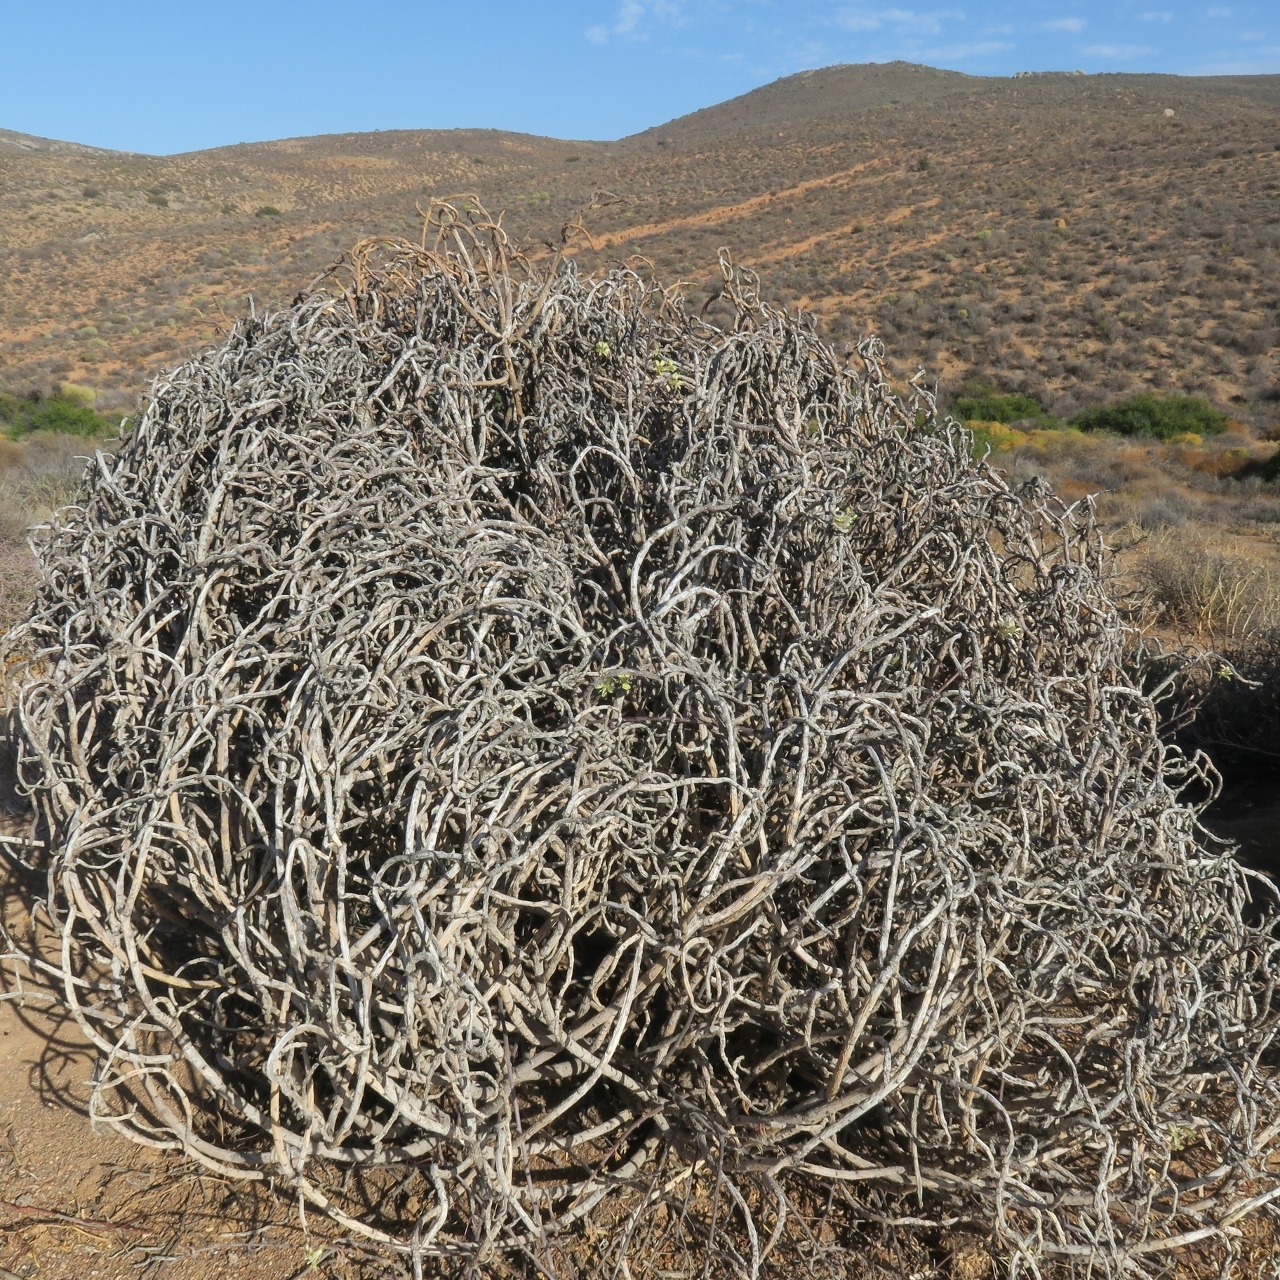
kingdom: Plantae
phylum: Tracheophyta
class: Magnoliopsida
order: Geraniales
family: Geraniaceae
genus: Pelargonium
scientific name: Pelargonium karooicum
